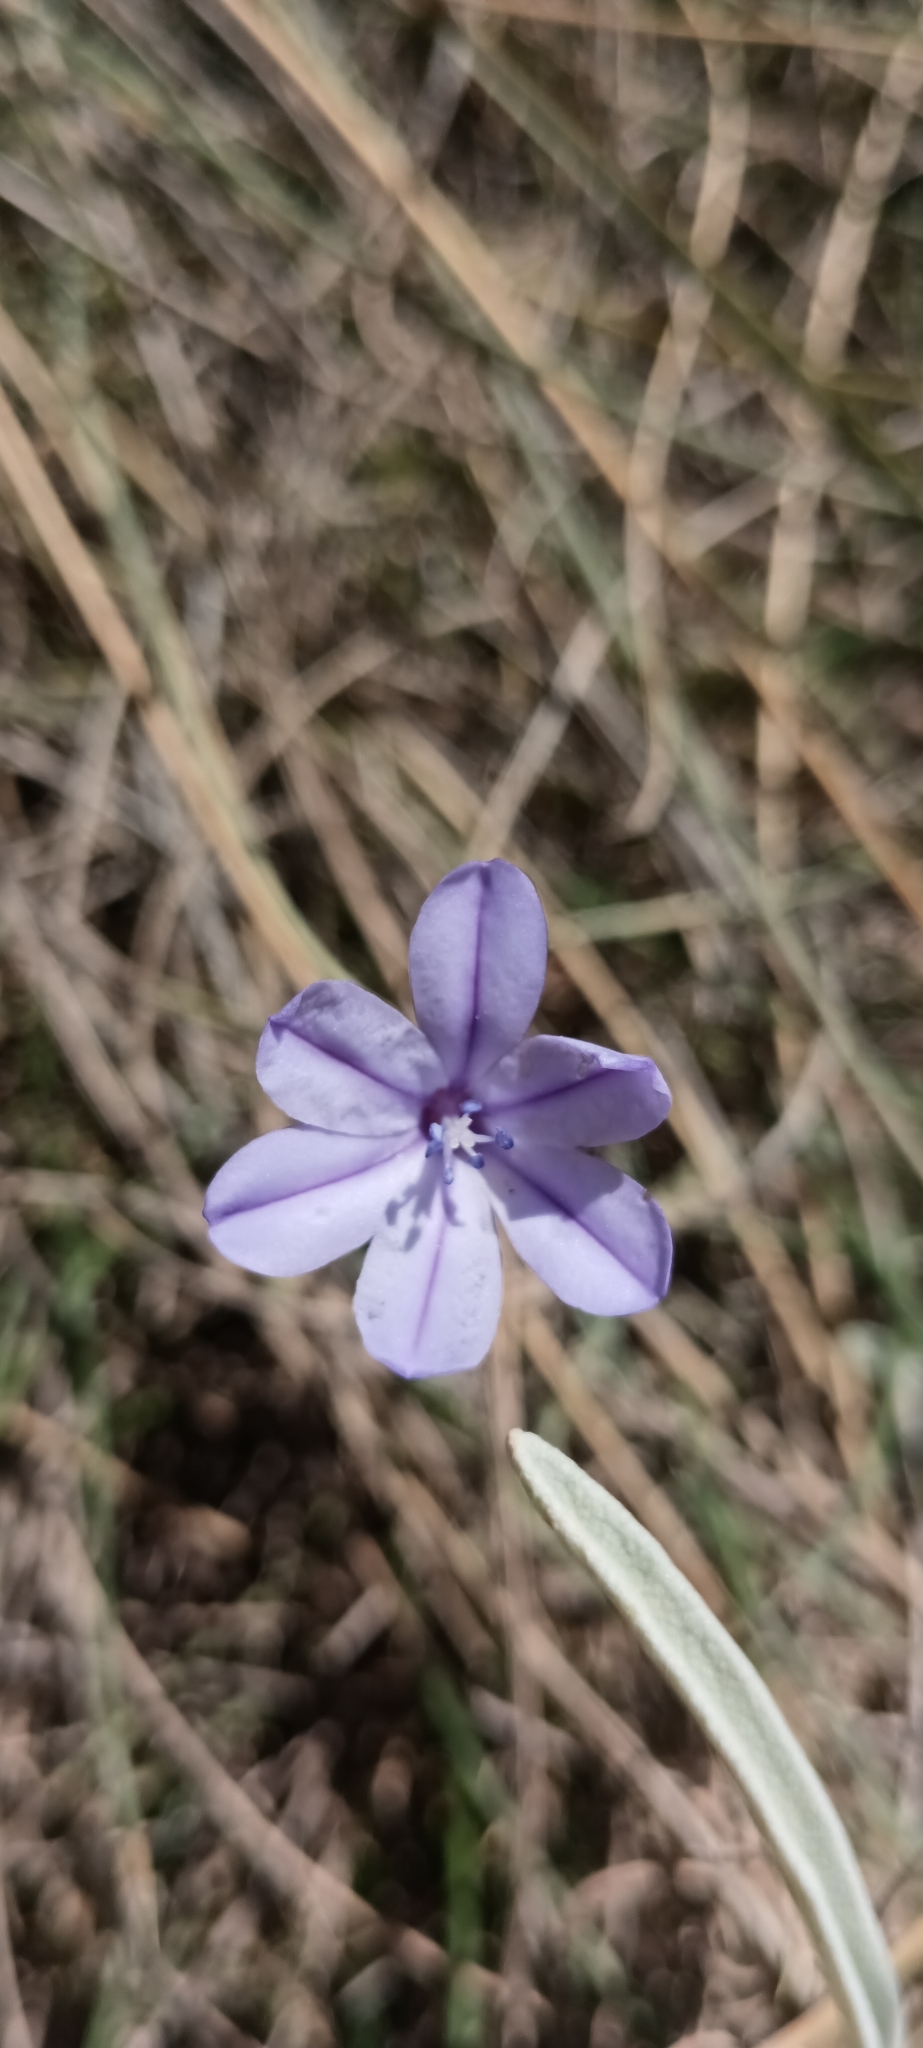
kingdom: Plantae
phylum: Tracheophyta
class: Liliopsida
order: Asparagales
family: Asparagaceae
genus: Aphyllanthes
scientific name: Aphyllanthes monspeliensis
